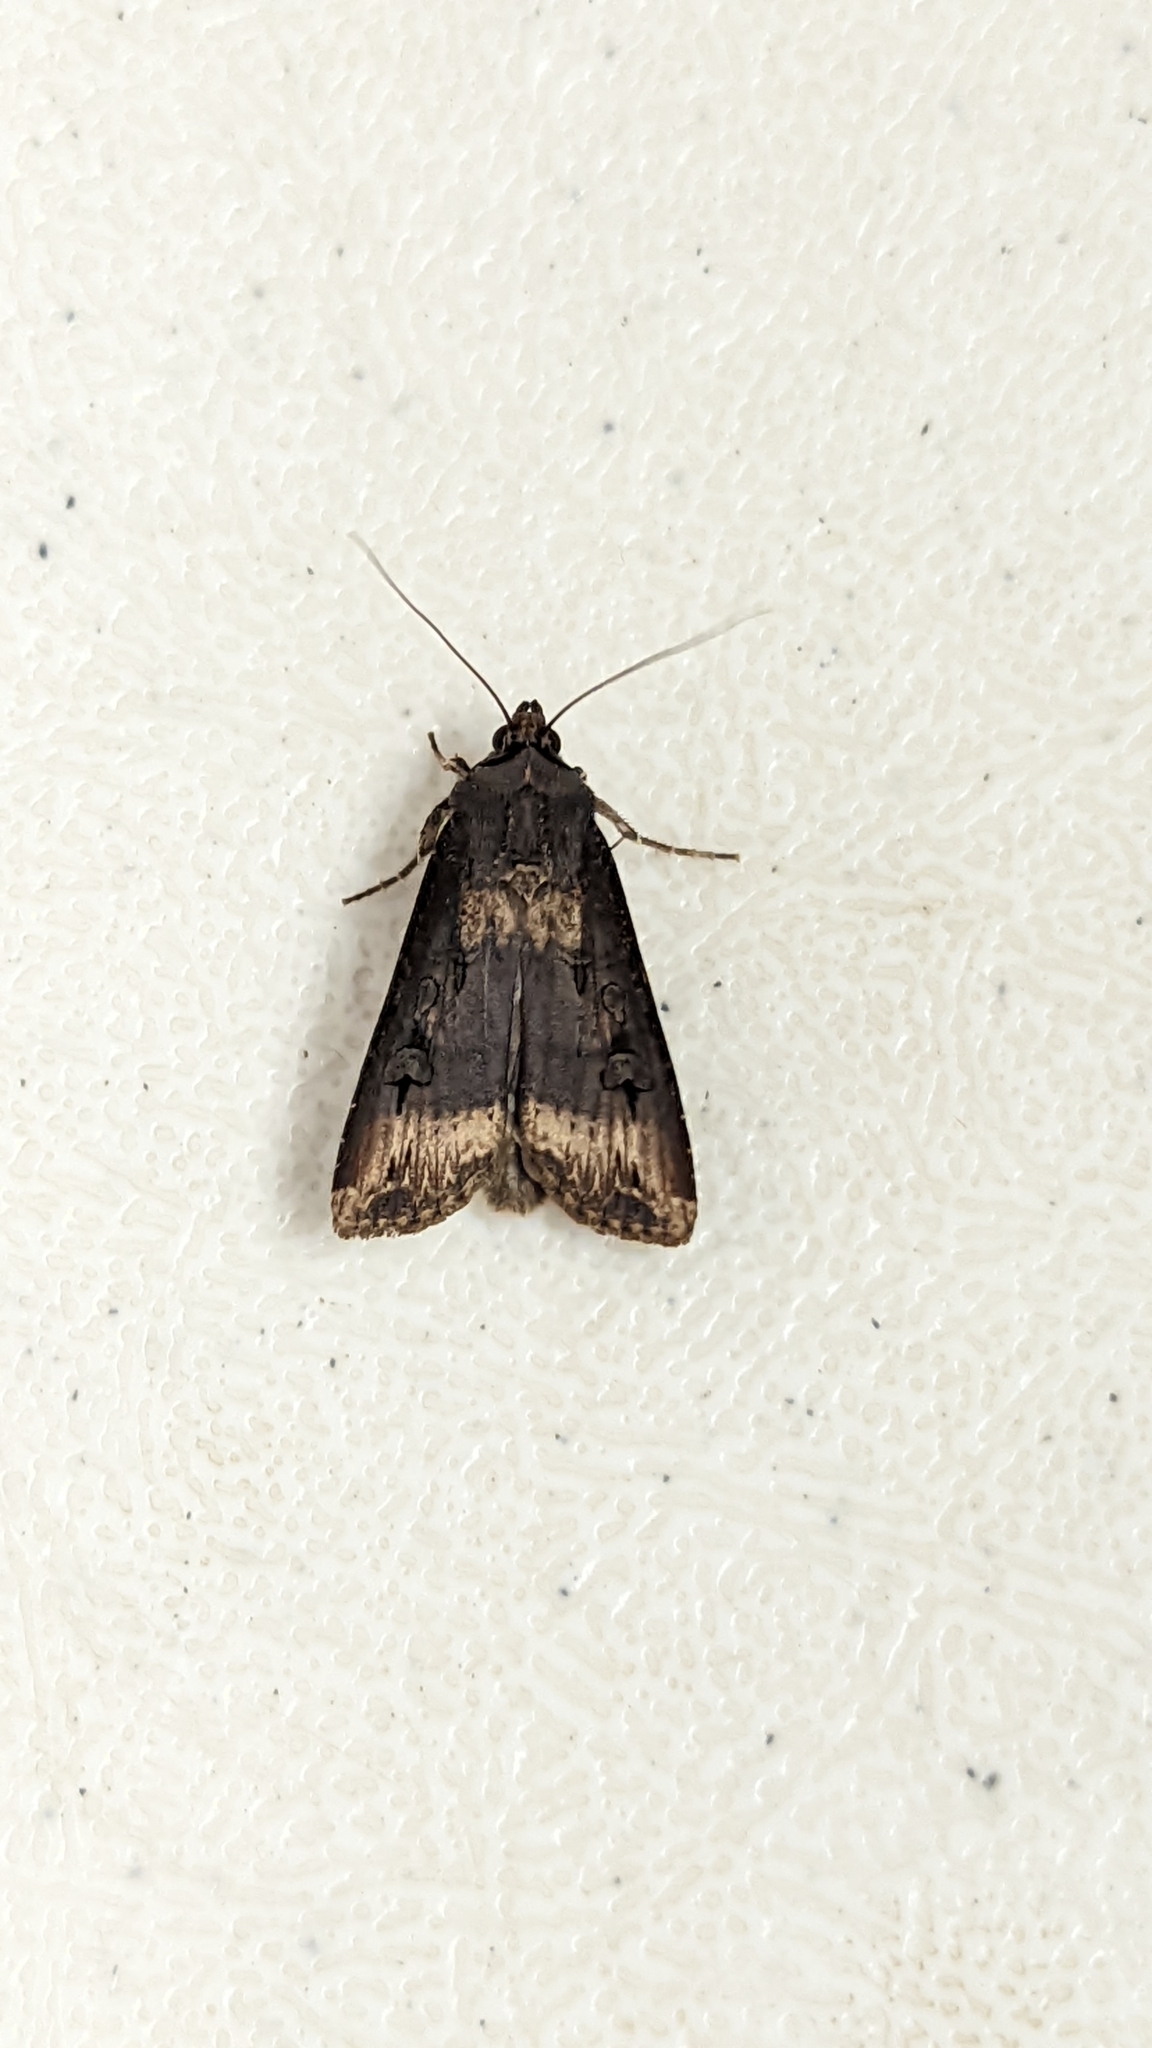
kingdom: Animalia
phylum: Arthropoda
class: Insecta
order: Lepidoptera
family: Noctuidae
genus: Agrotis
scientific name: Agrotis ipsilon
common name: Dark sword-grass
